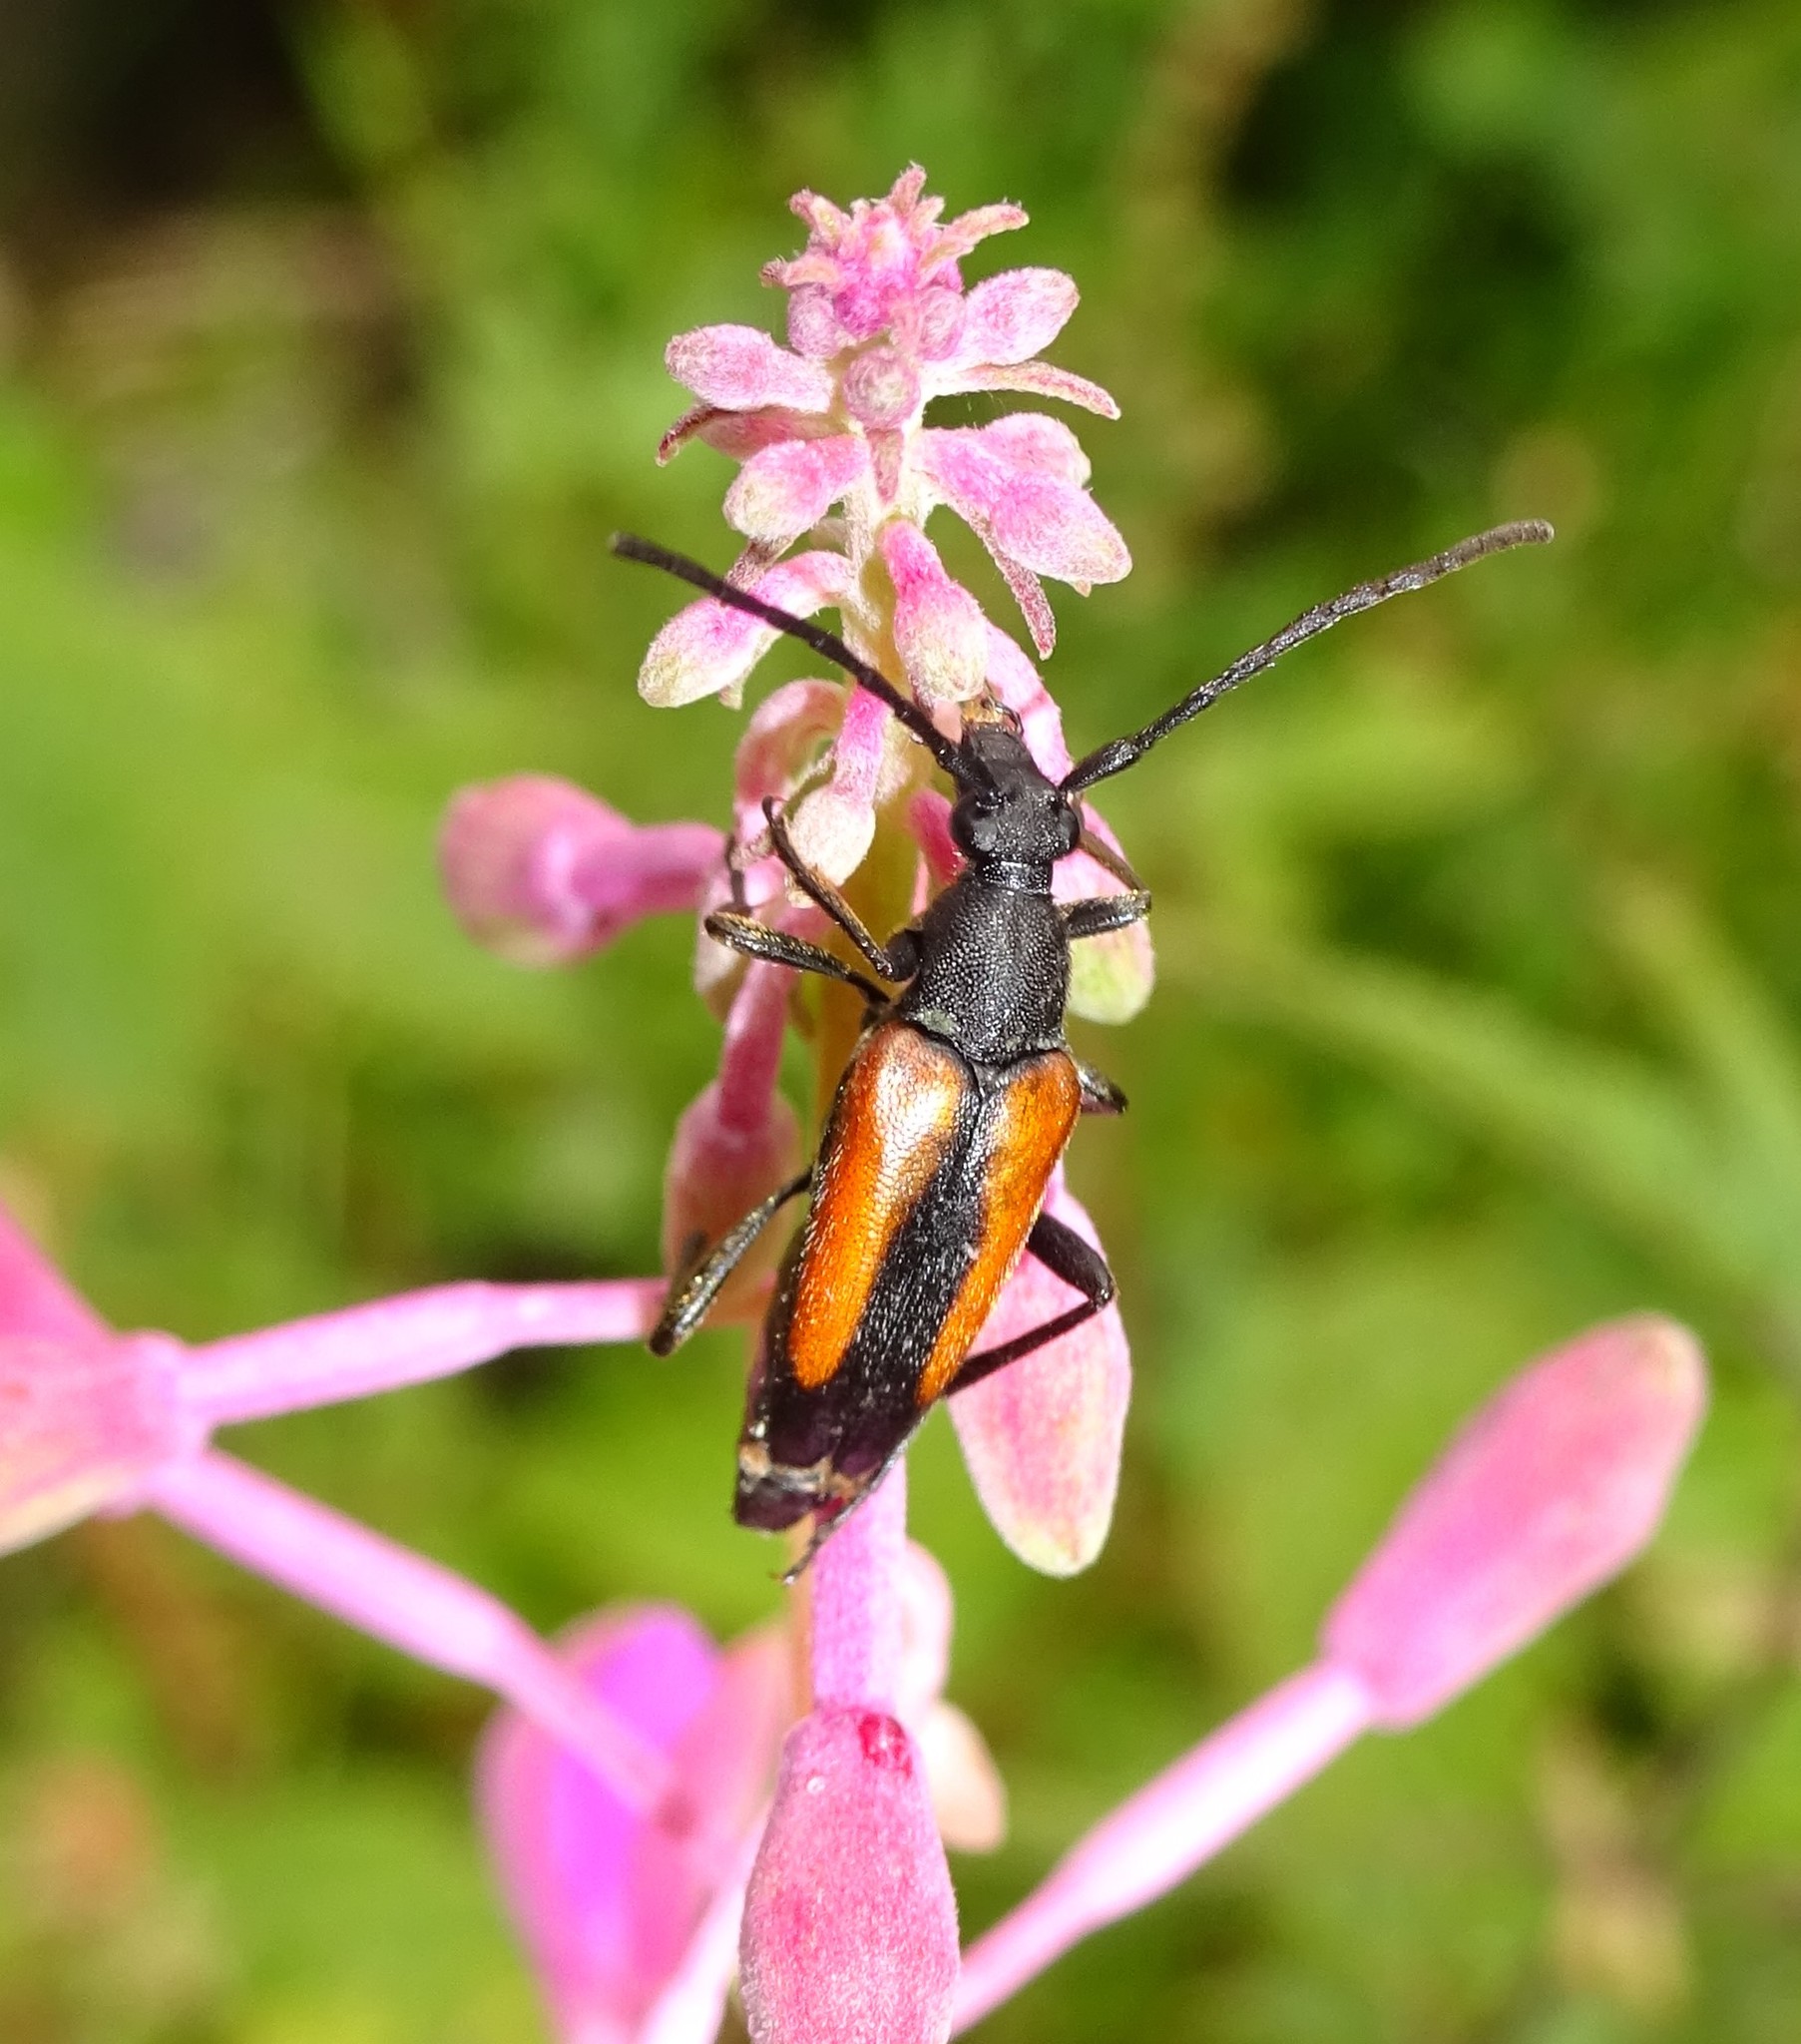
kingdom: Animalia
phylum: Arthropoda
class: Insecta
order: Coleoptera
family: Cerambycidae
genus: Stenurella
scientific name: Stenurella melanura
